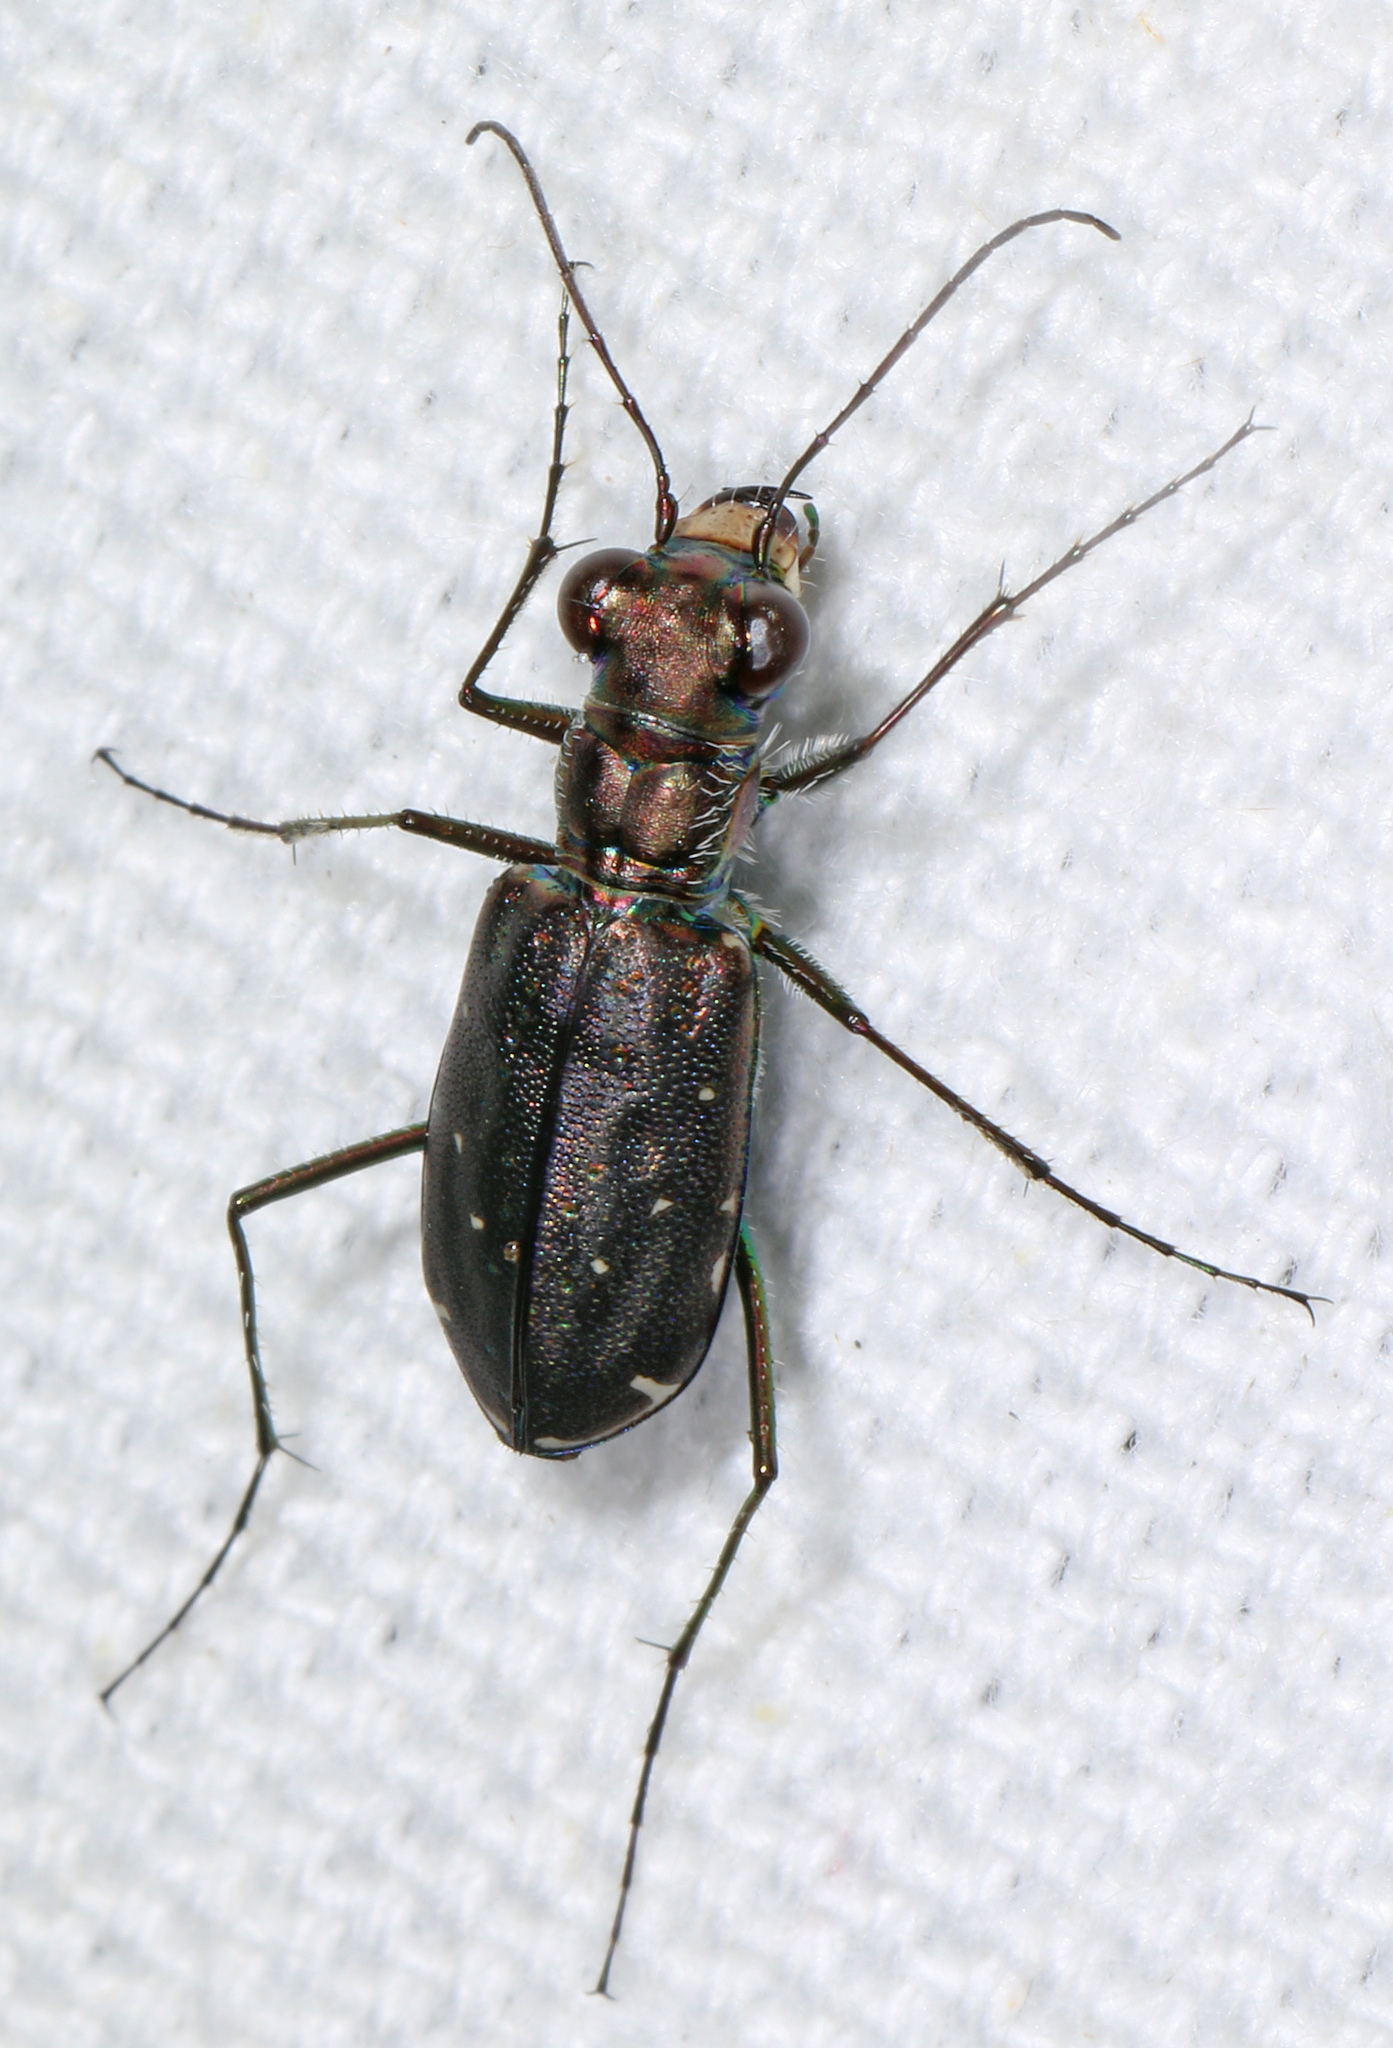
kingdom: Animalia
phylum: Arthropoda
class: Insecta
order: Coleoptera
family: Carabidae
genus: Cicindela
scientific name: Cicindela punctulata
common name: Punctured tiger beetle
